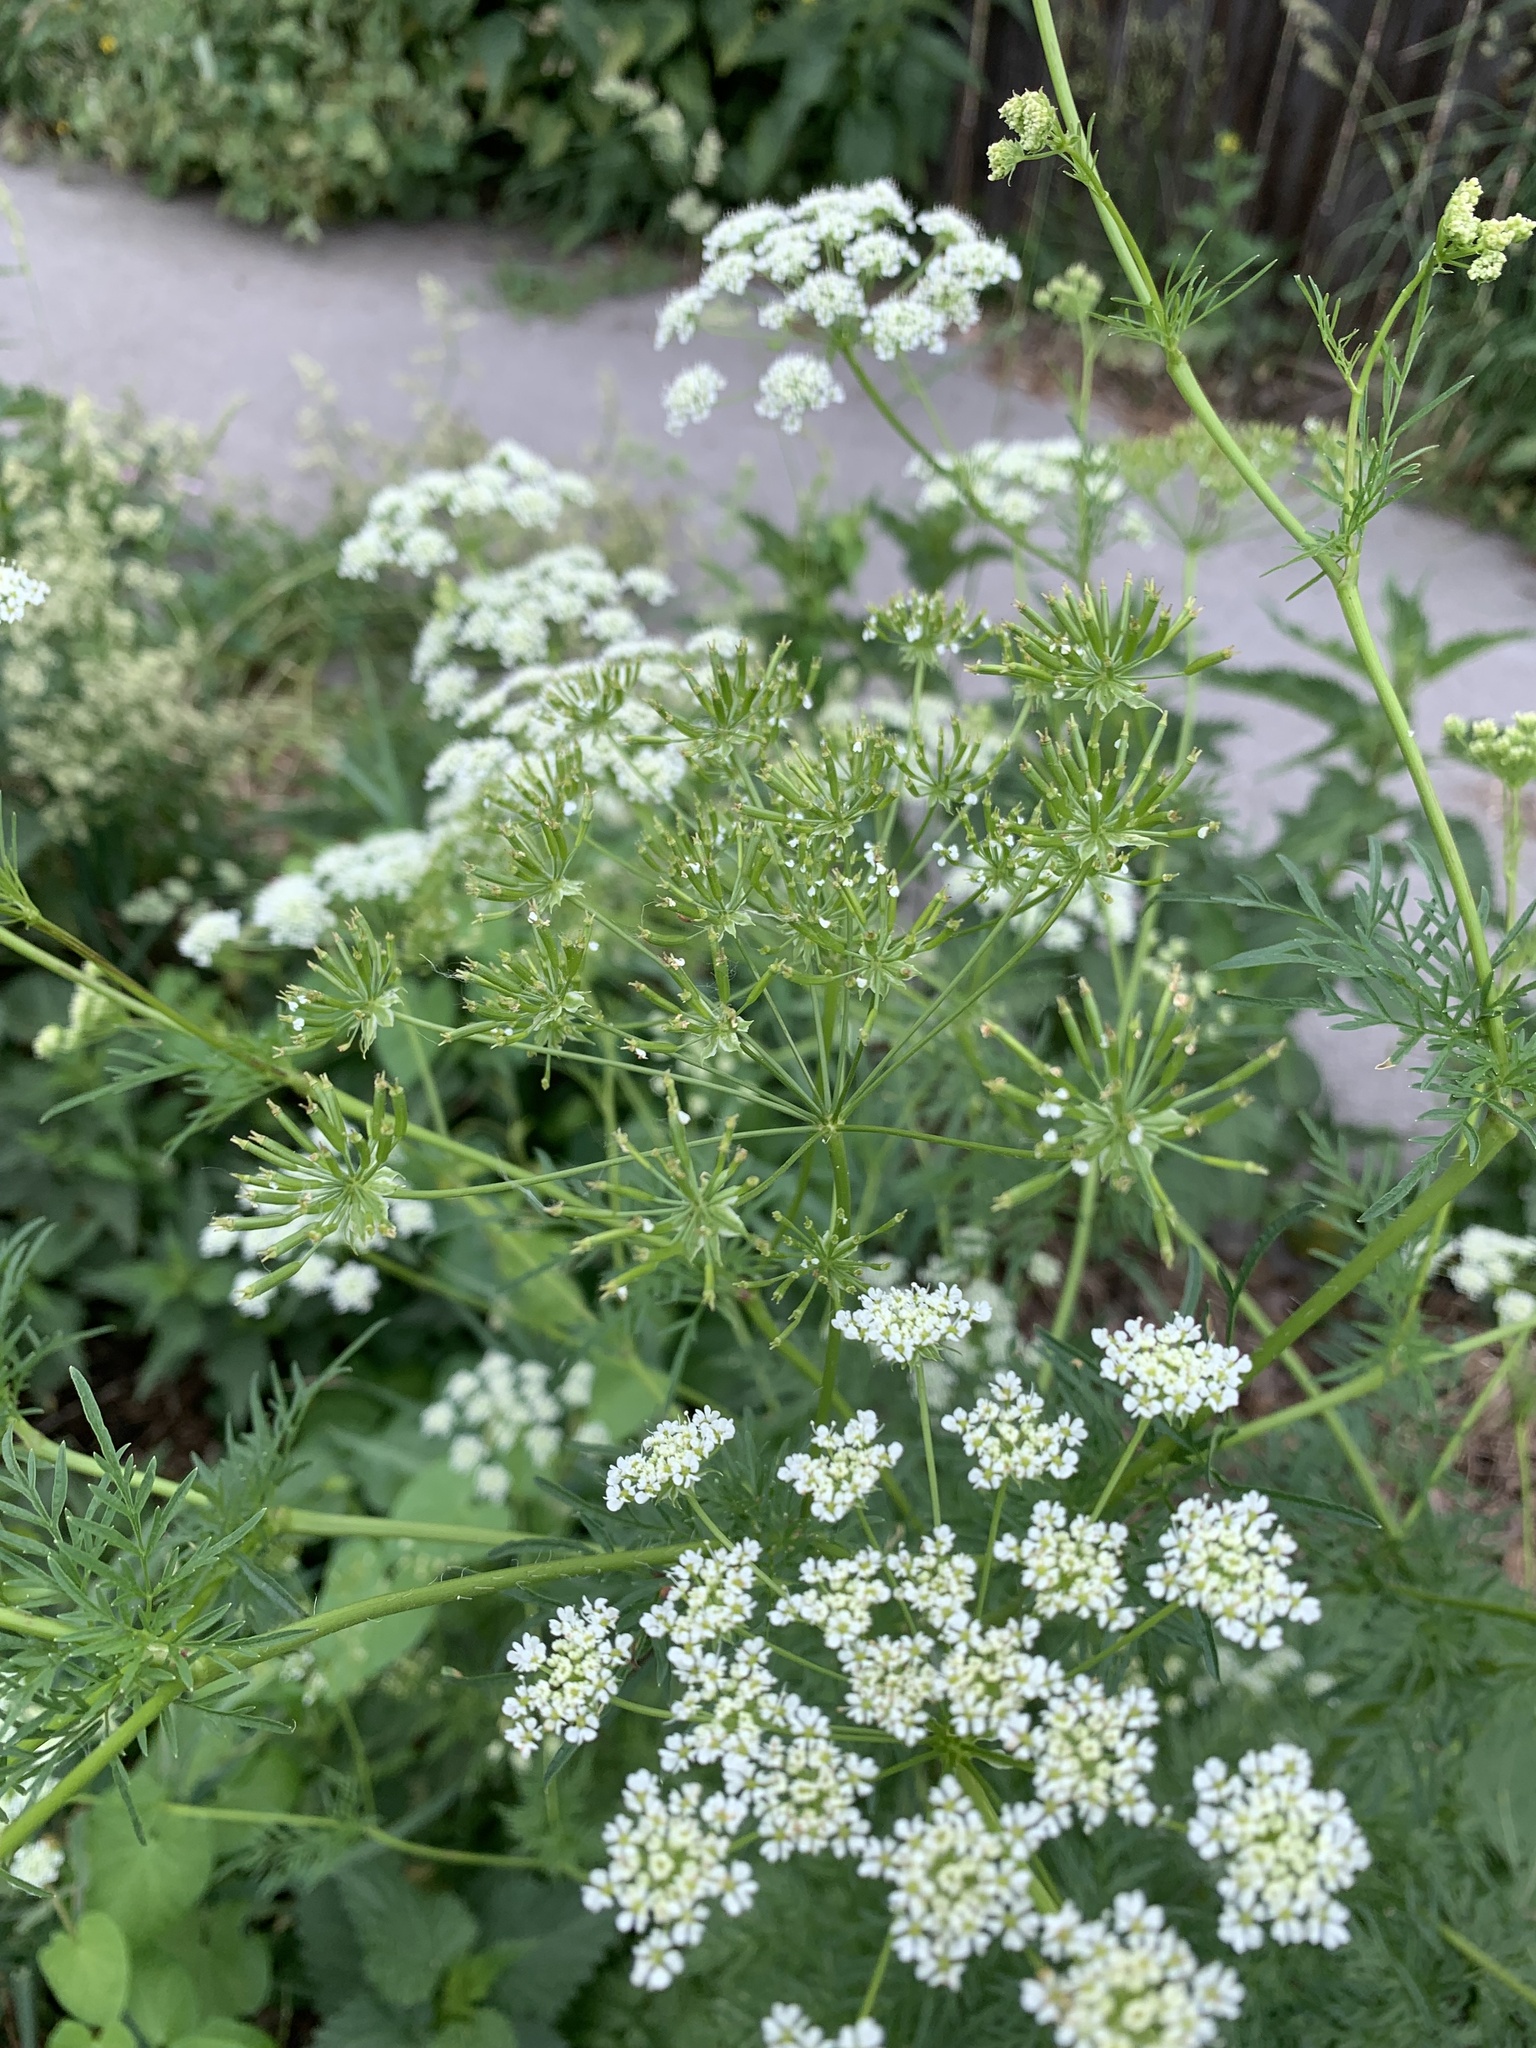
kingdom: Plantae
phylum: Tracheophyta
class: Magnoliopsida
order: Apiales
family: Apiaceae
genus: Anthriscus
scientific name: Anthriscus sylvestris
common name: Cow parsley
